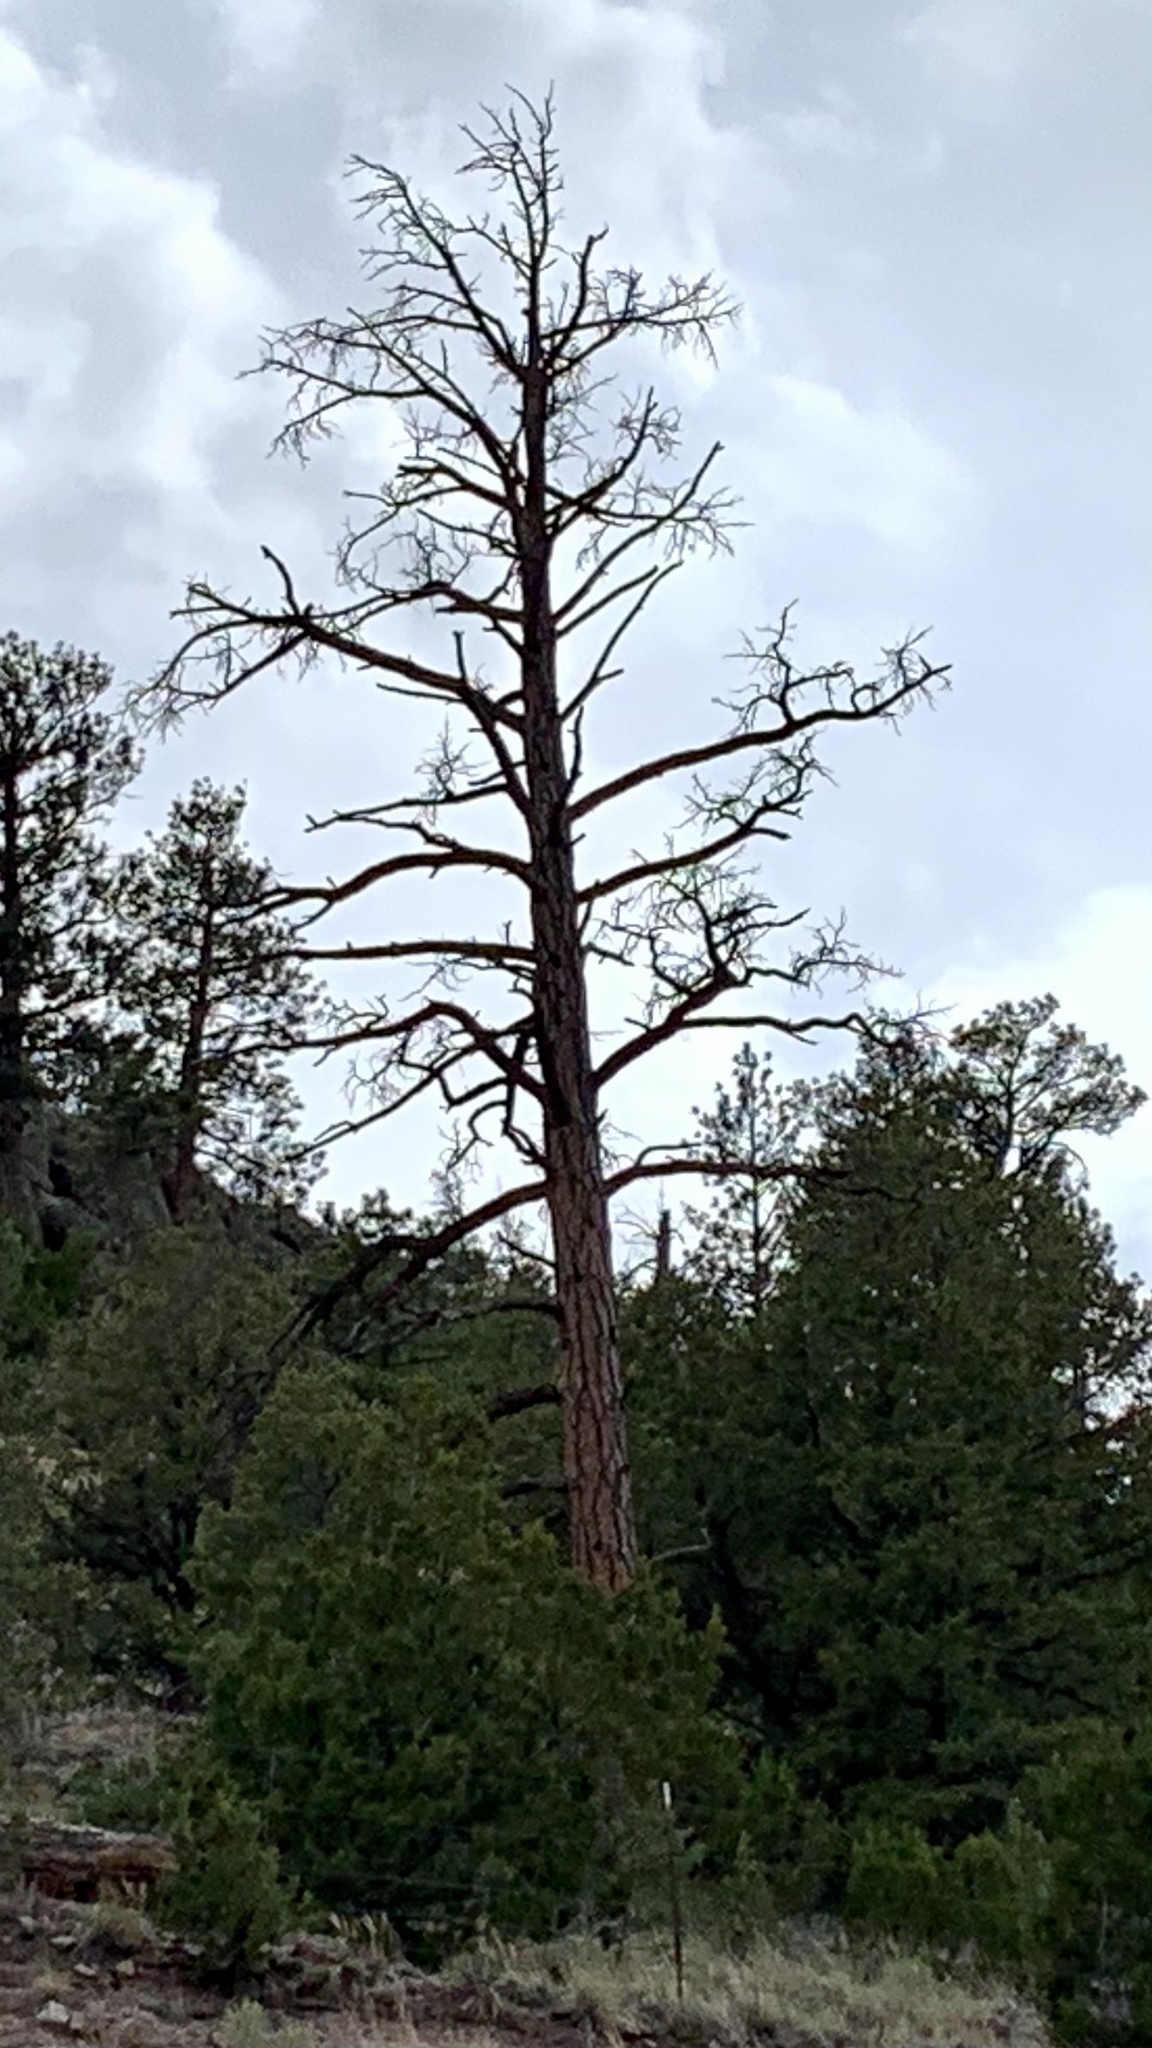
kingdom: Plantae
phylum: Tracheophyta
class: Pinopsida
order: Pinales
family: Pinaceae
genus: Pinus
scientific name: Pinus ponderosa
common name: Western yellow-pine
